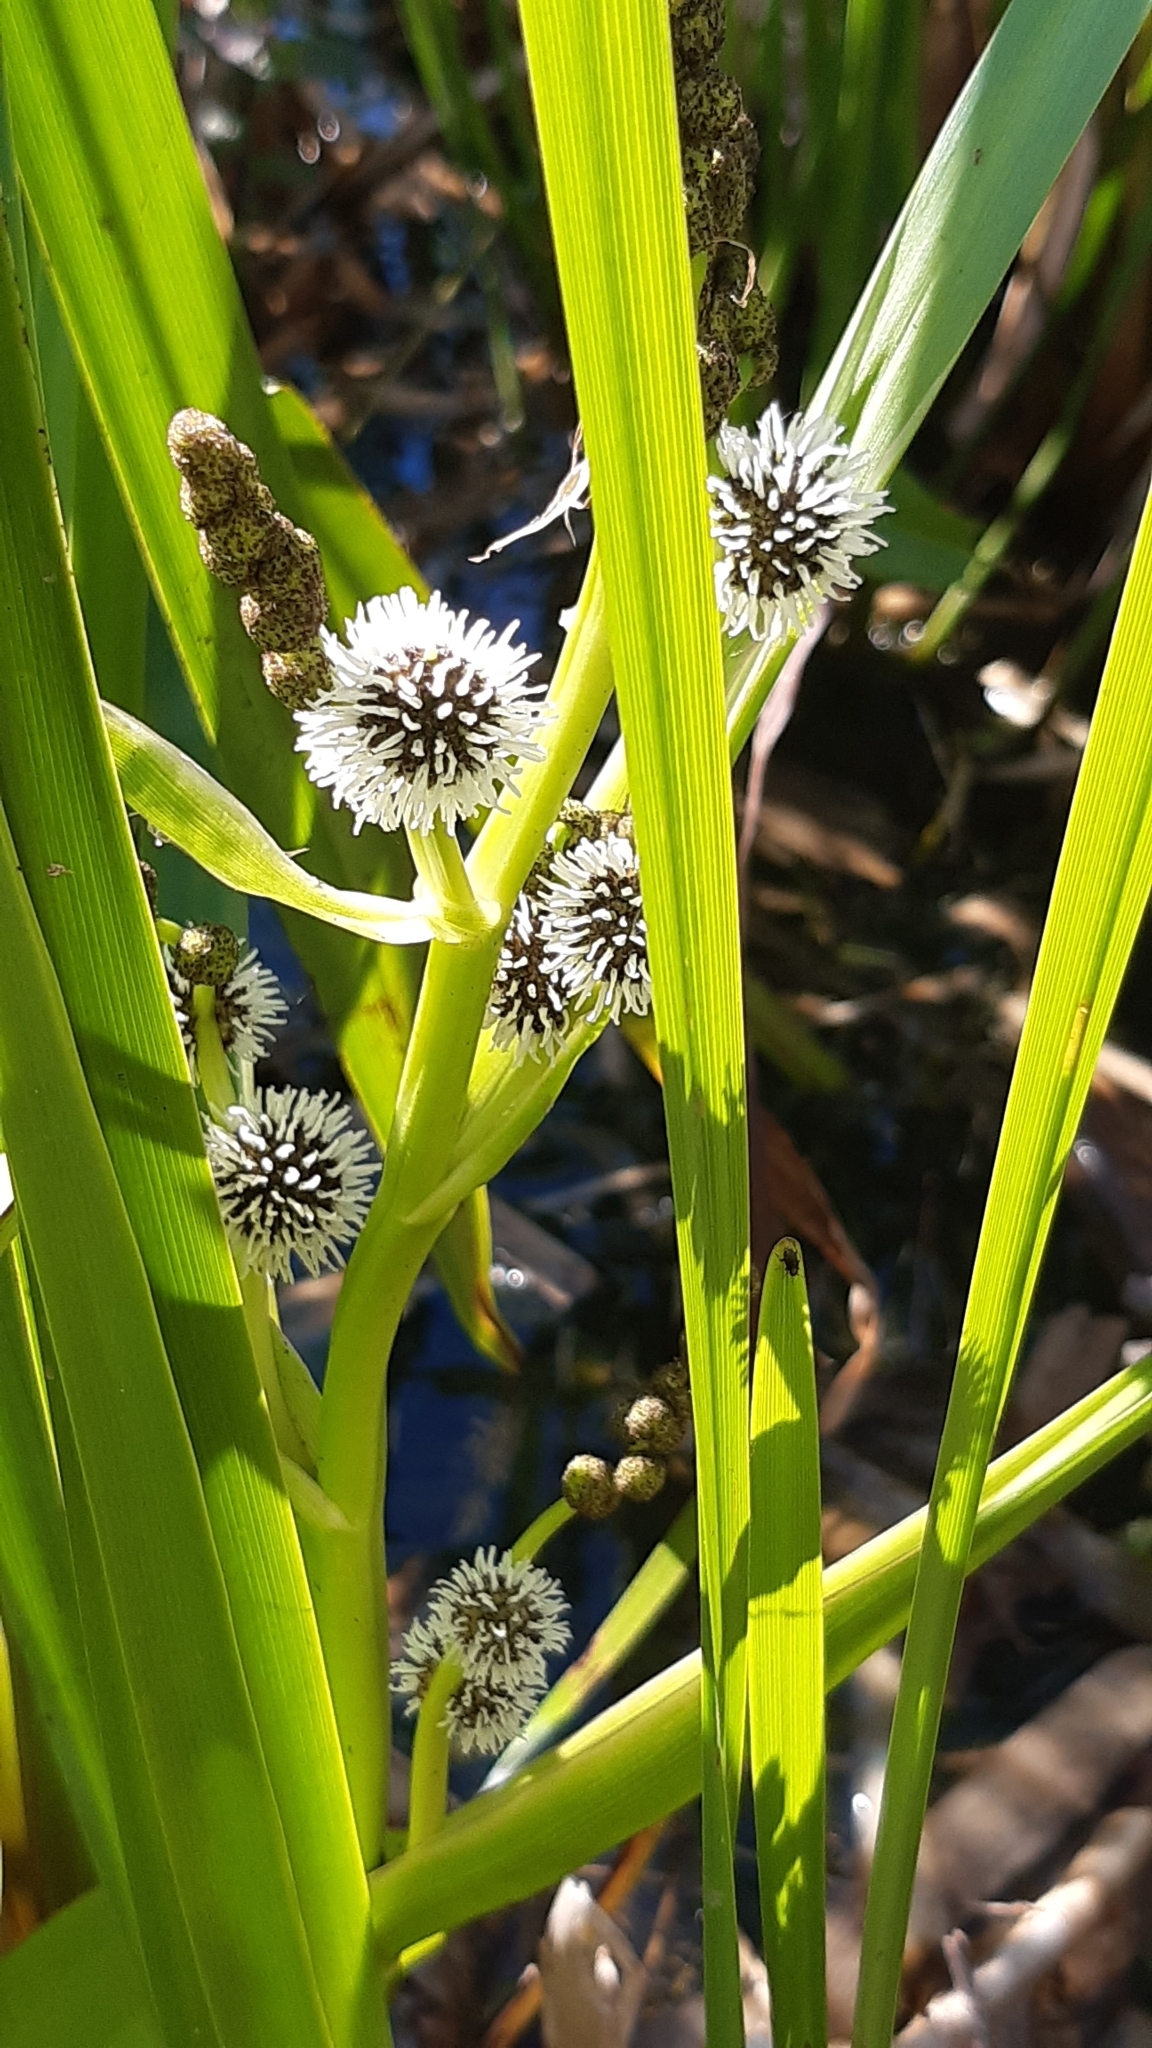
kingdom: Plantae
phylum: Tracheophyta
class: Liliopsida
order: Poales
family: Typhaceae
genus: Sparganium
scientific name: Sparganium erectum
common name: Branched bur-reed
